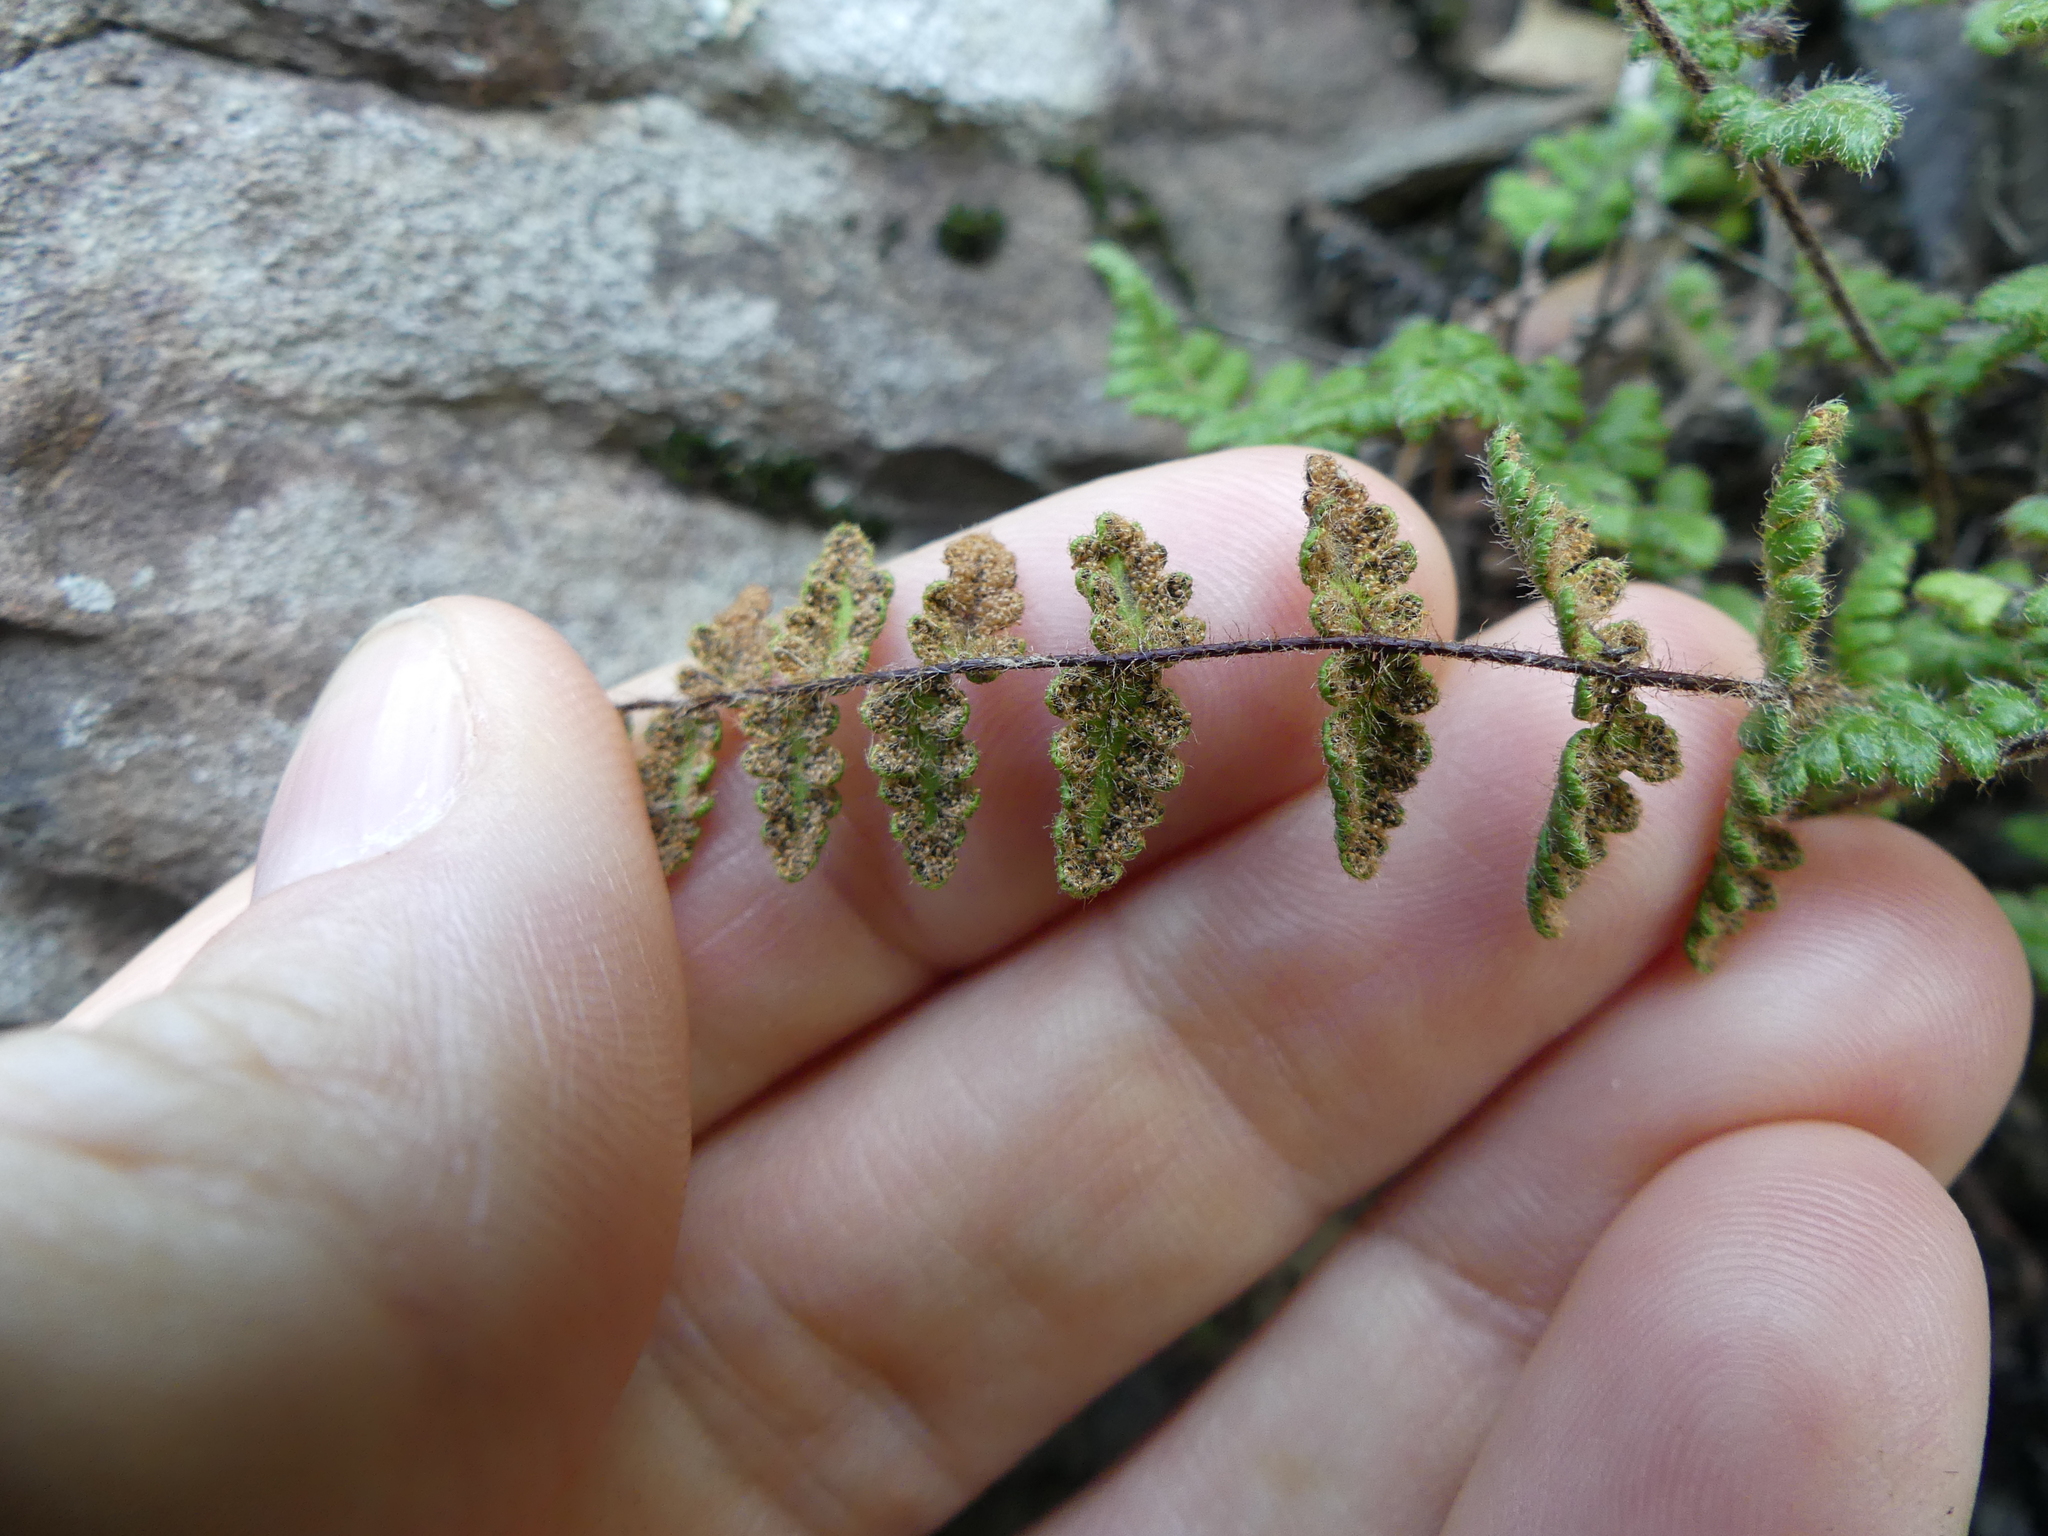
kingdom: Plantae
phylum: Tracheophyta
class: Polypodiopsida
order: Polypodiales
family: Pteridaceae
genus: Myriopteris
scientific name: Myriopteris lanosa
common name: Hairy lip fern
